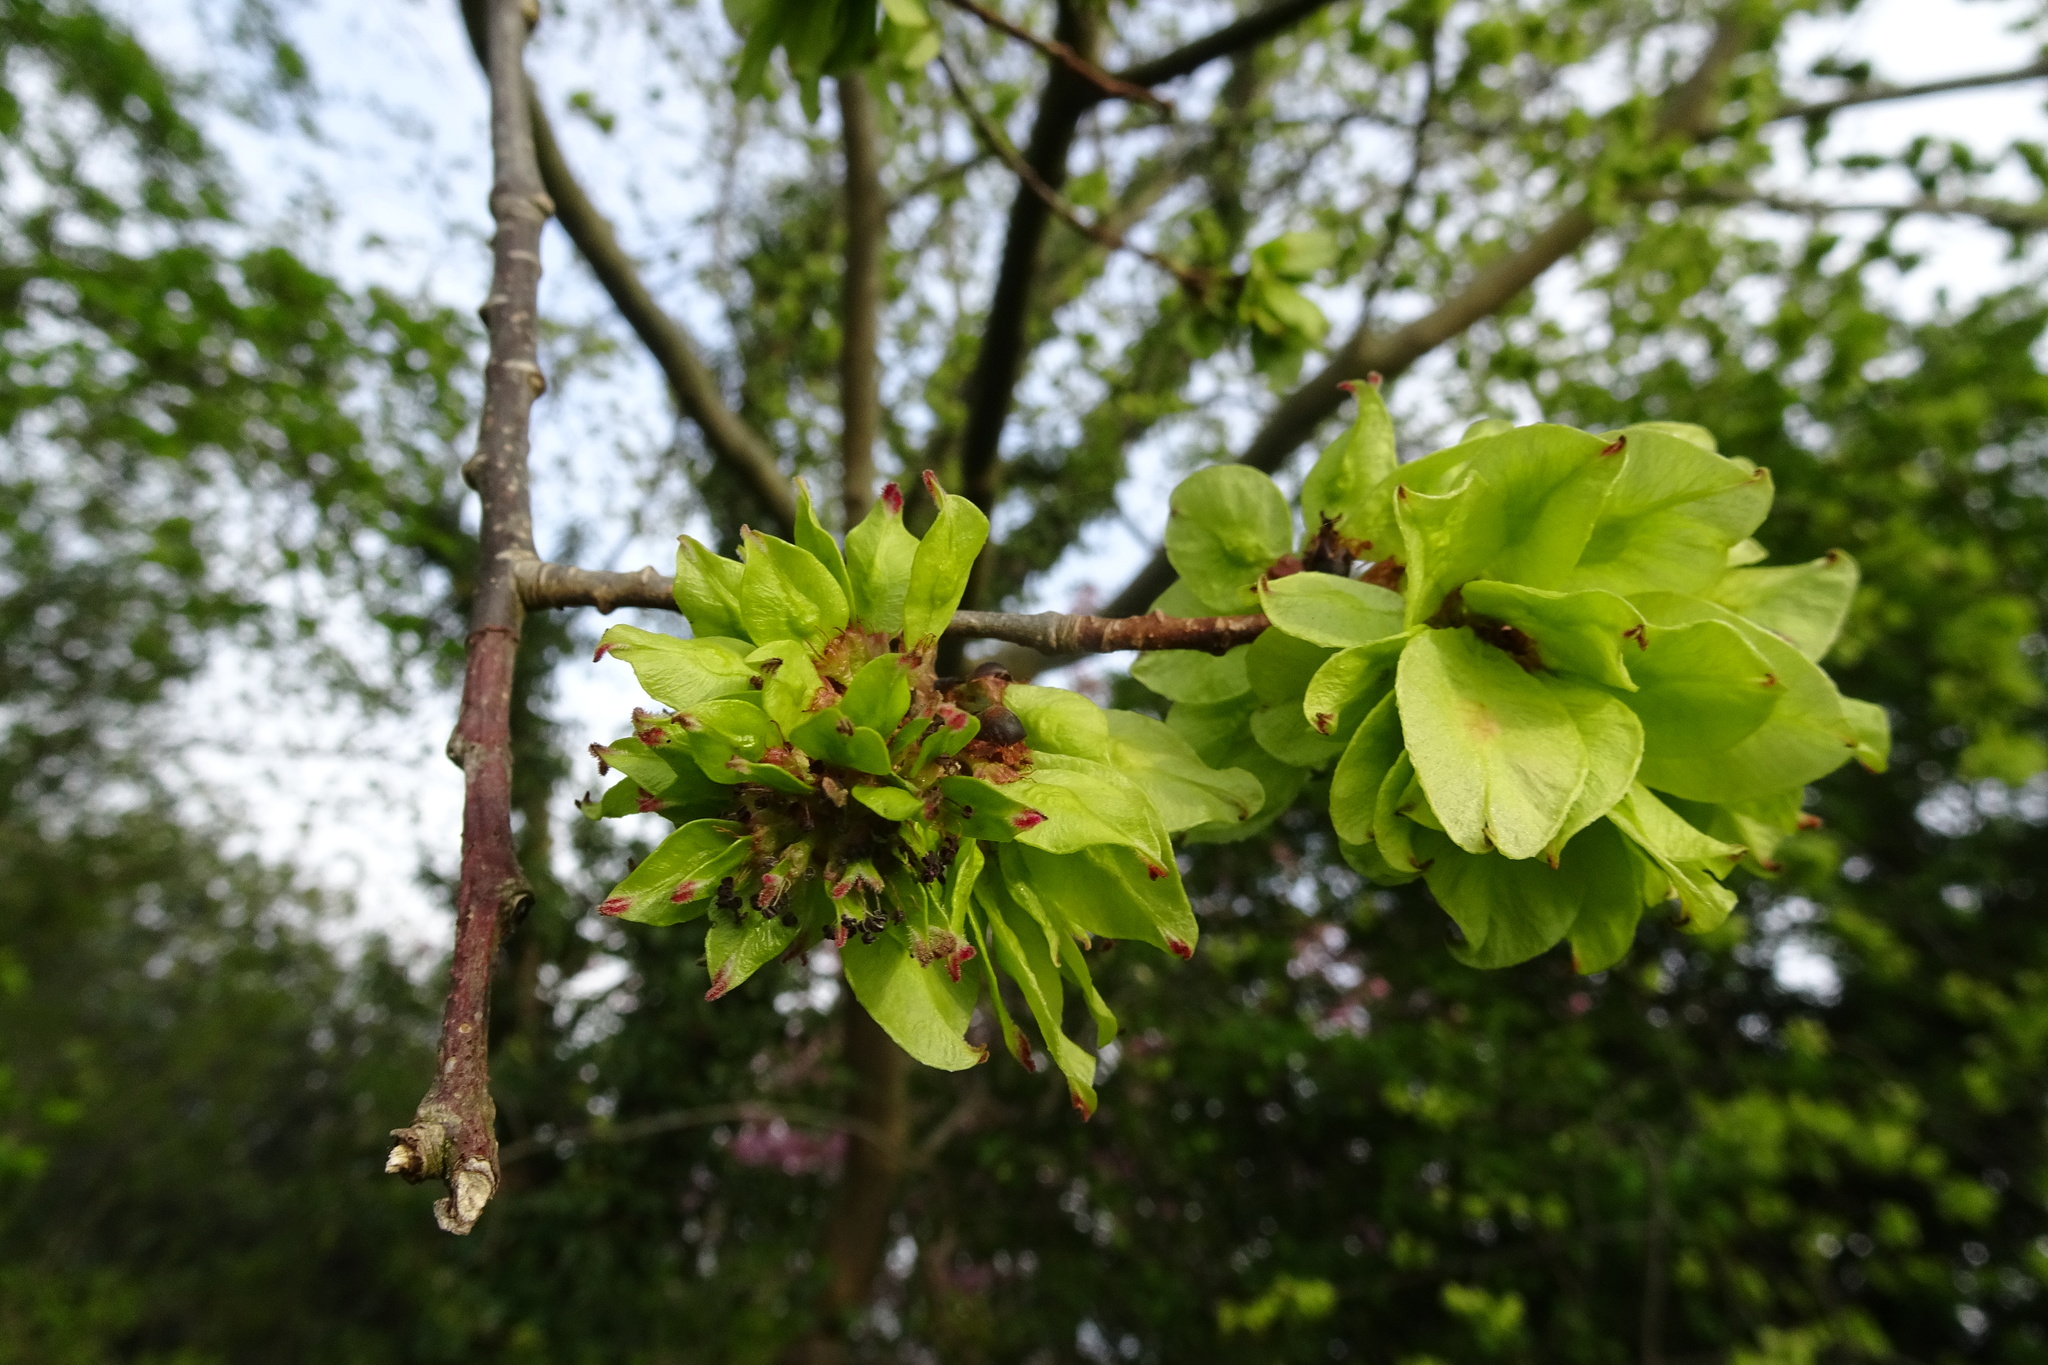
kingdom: Plantae
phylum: Tracheophyta
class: Magnoliopsida
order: Rosales
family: Ulmaceae
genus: Ulmus
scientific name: Ulmus glabra
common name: Wych elm
